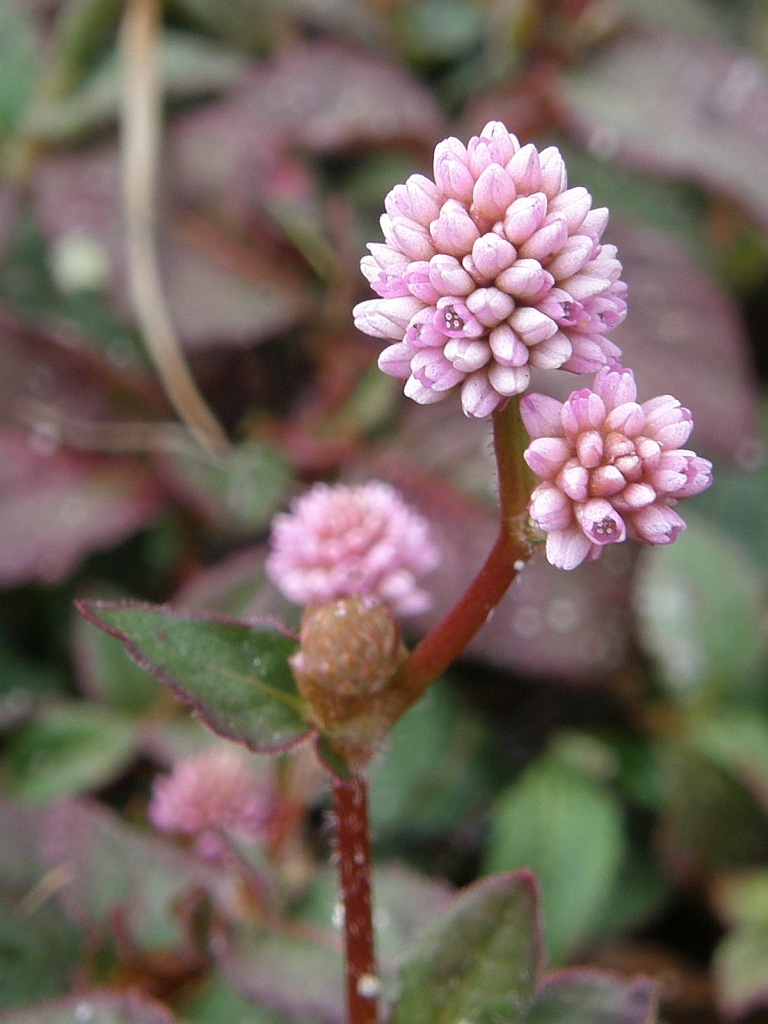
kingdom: Plantae
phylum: Tracheophyta
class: Magnoliopsida
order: Caryophyllales
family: Polygonaceae
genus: Persicaria
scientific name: Persicaria capitata
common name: Pinkhead smartweed
